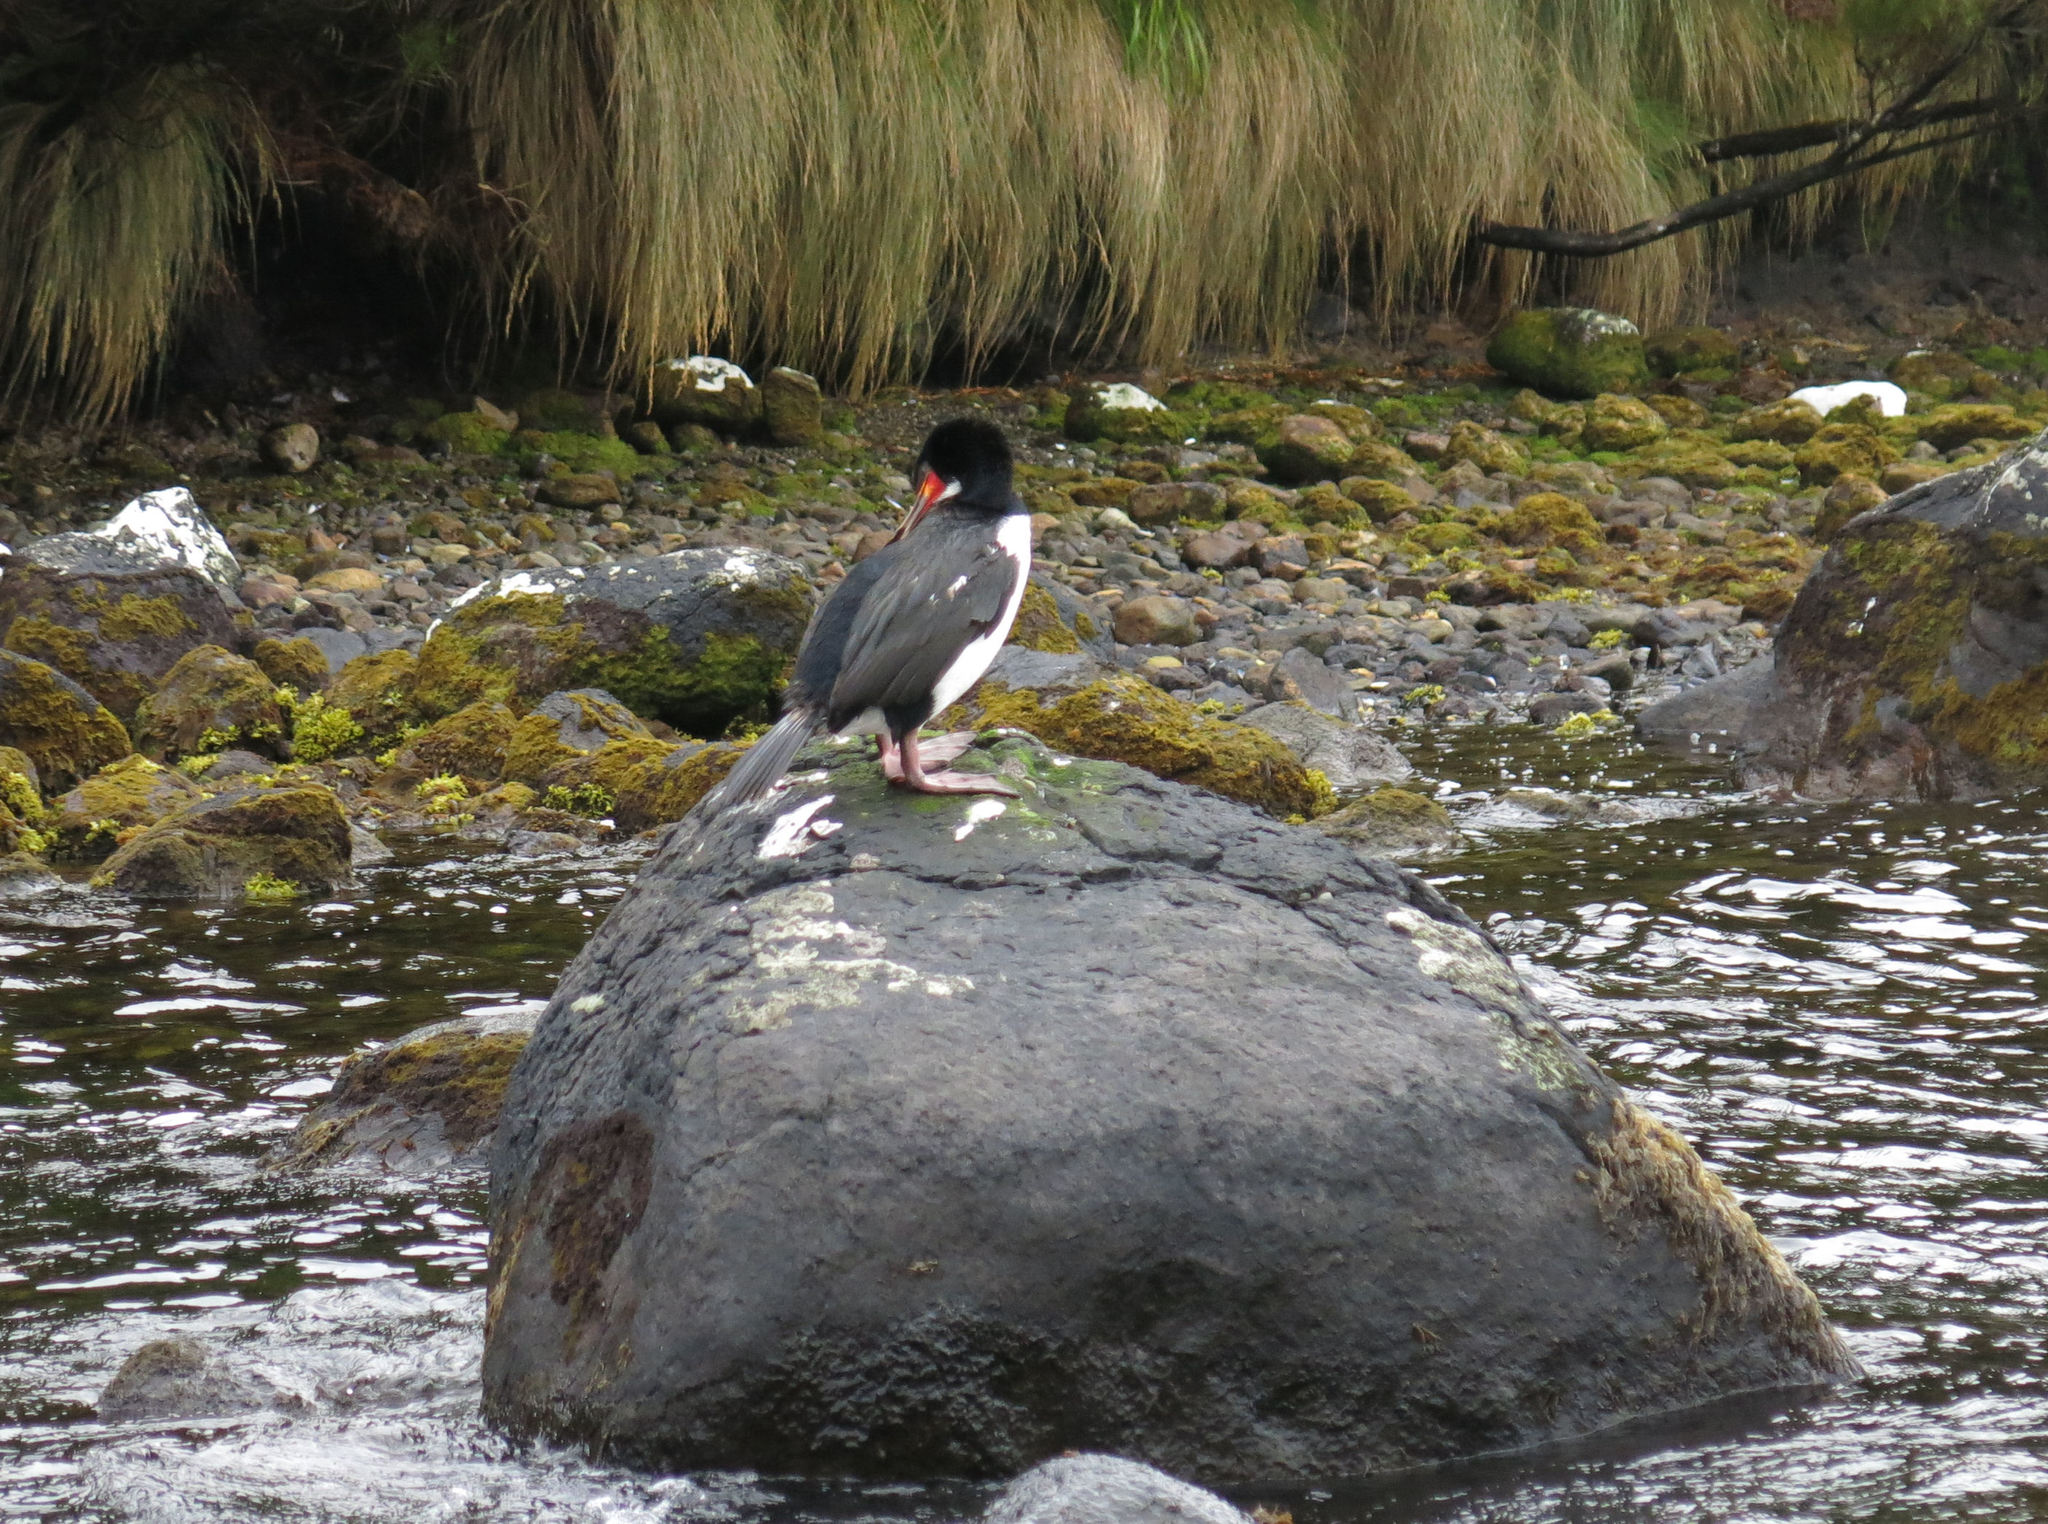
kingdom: Animalia
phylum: Chordata
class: Aves
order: Suliformes
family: Phalacrocoracidae
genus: Leucocarbo
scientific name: Leucocarbo campbelli
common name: Campbell shag
